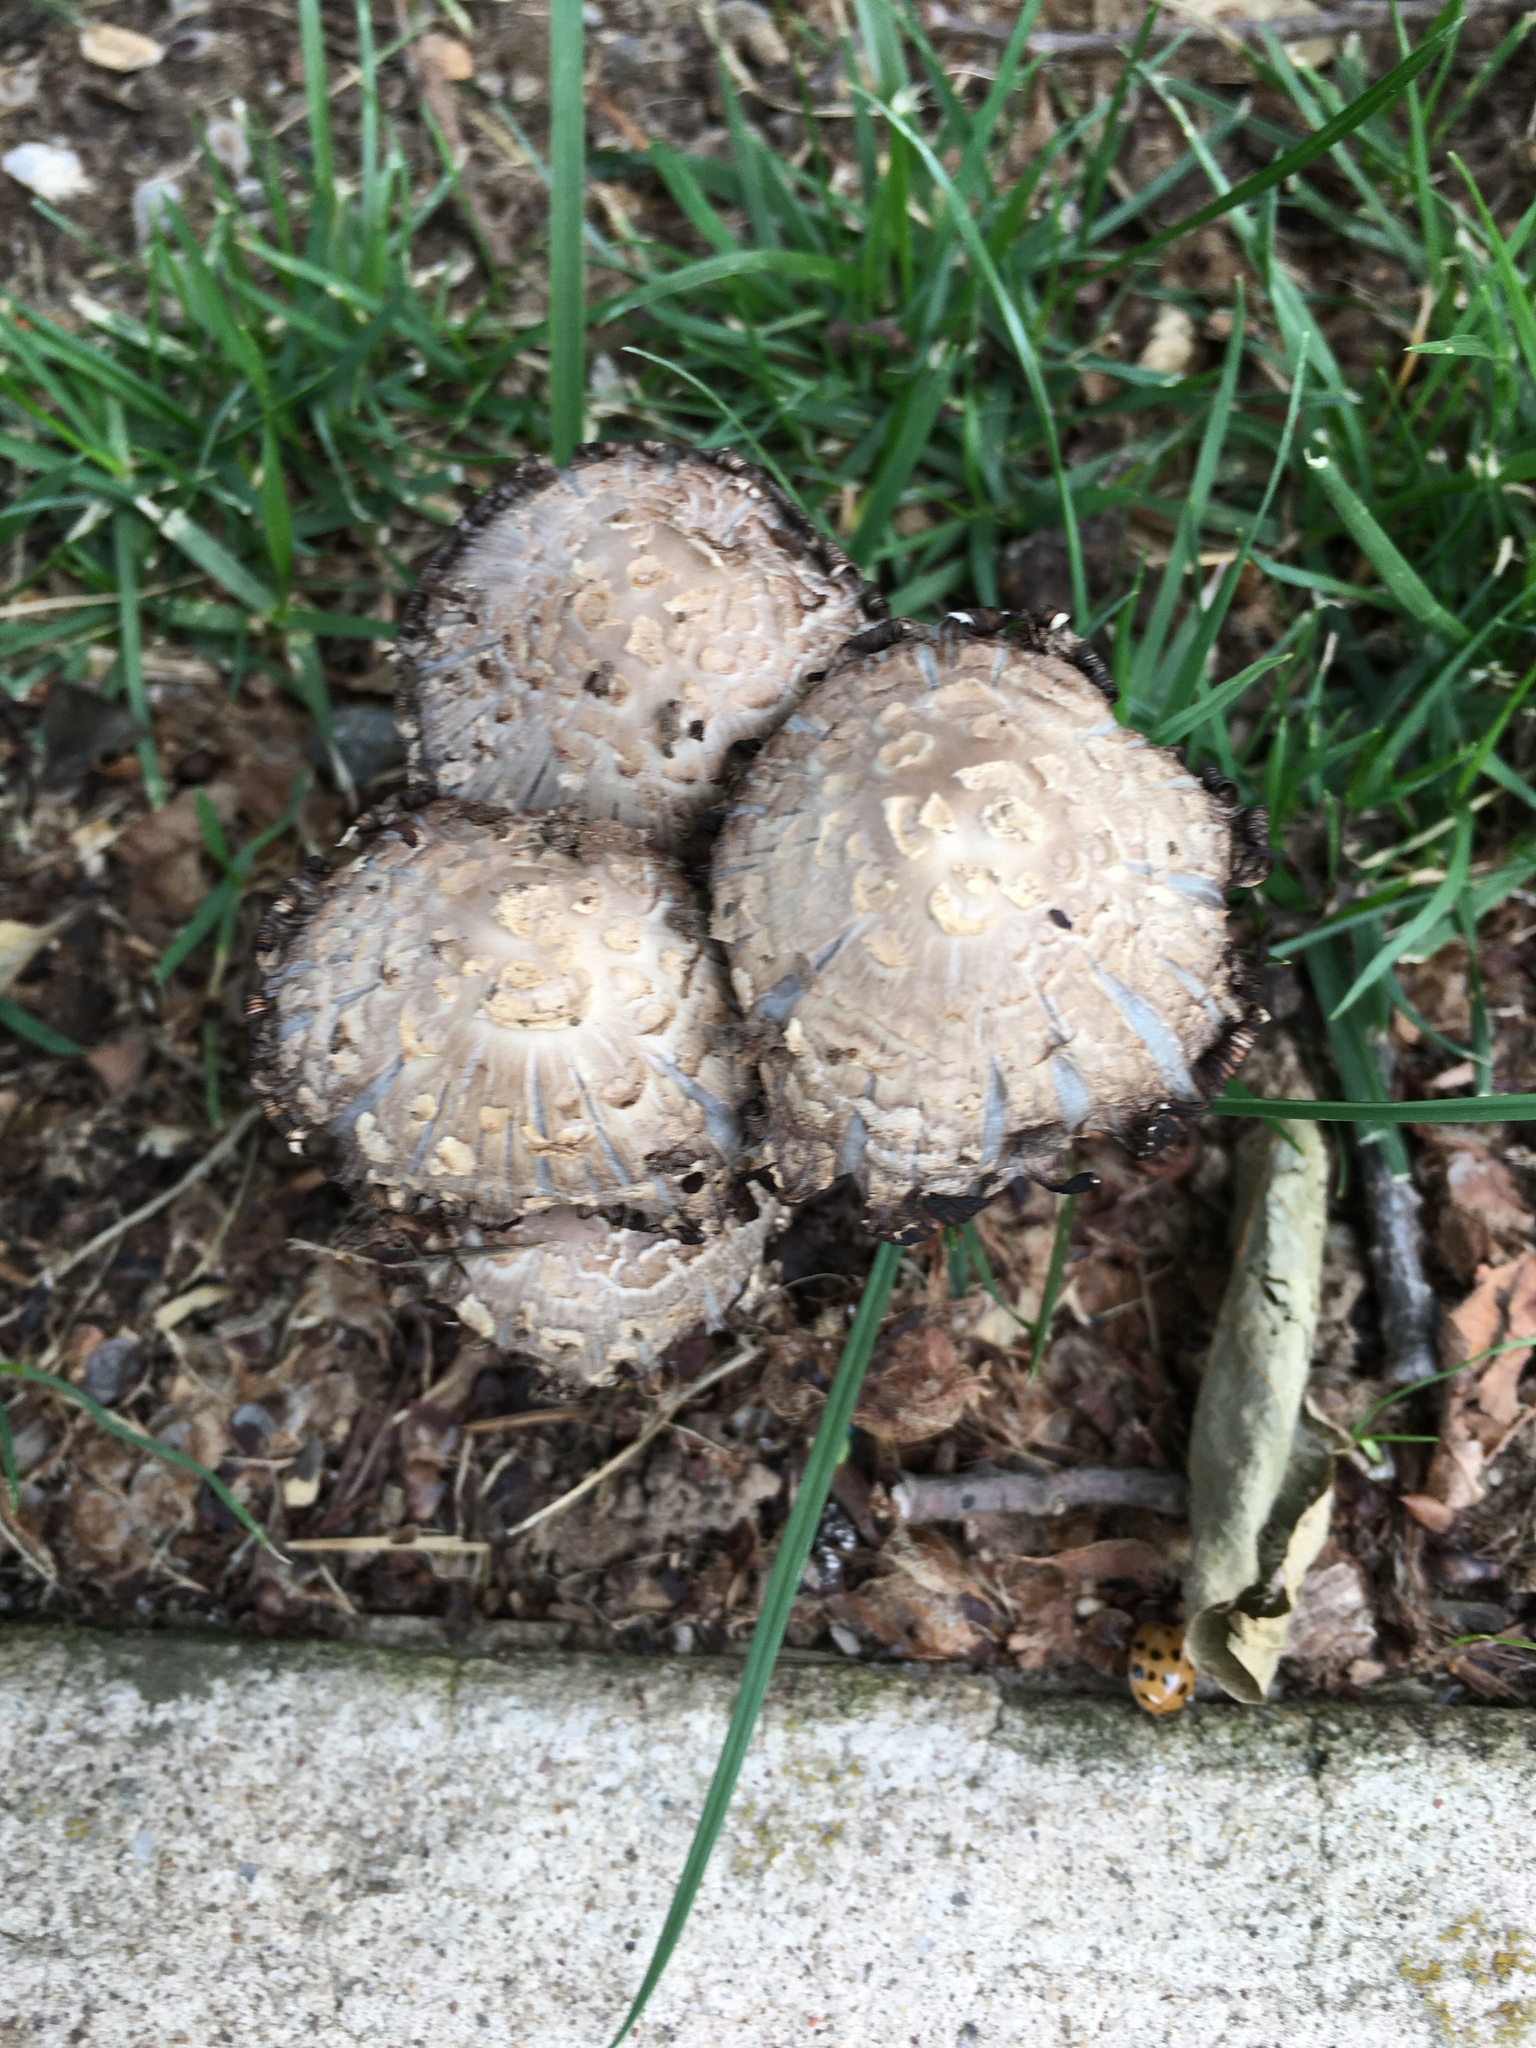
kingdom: Fungi
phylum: Basidiomycota
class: Agaricomycetes
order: Agaricales
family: Psathyrellaceae
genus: Coprinopsis
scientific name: Coprinopsis variegata
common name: Scaly ink cap
